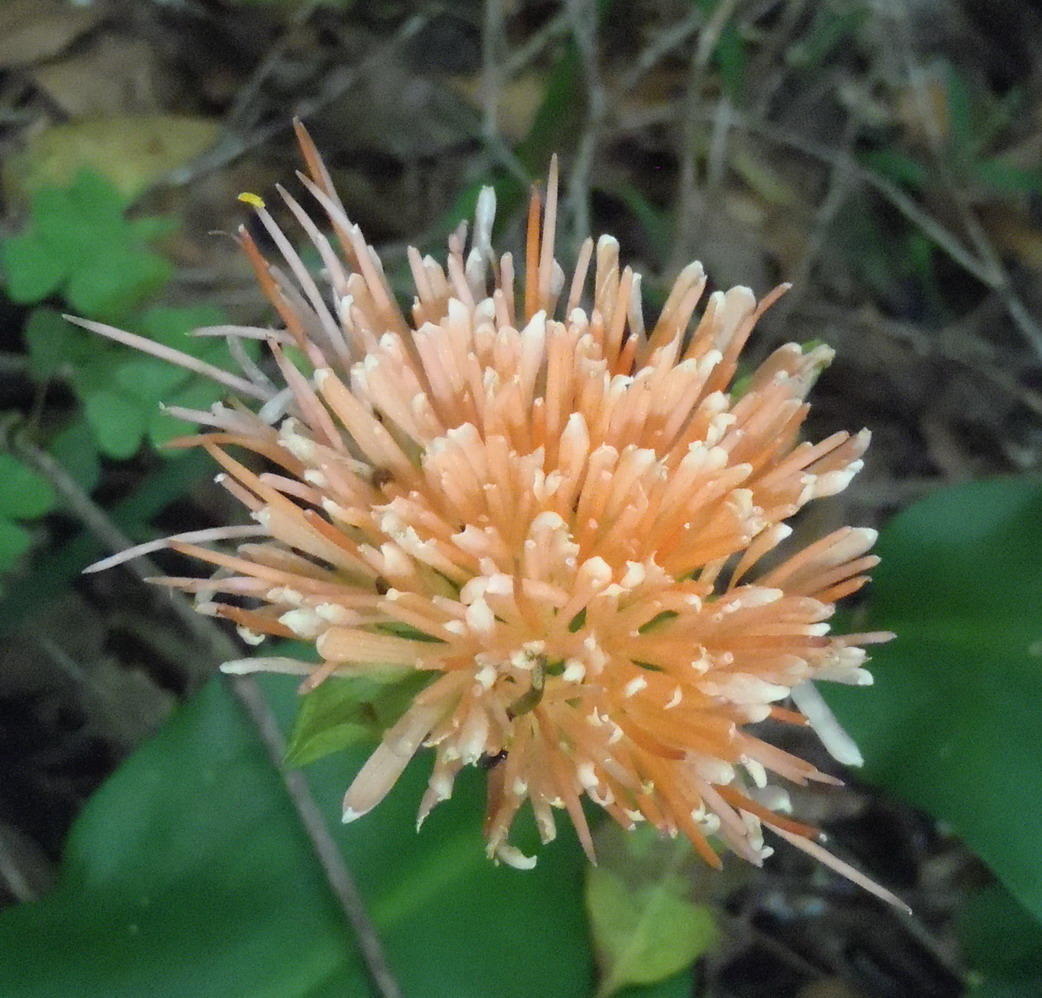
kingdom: Plantae
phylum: Tracheophyta
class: Liliopsida
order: Asparagales
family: Amaryllidaceae
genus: Scadoxus
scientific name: Scadoxus puniceus
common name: Royal-paintbrush
